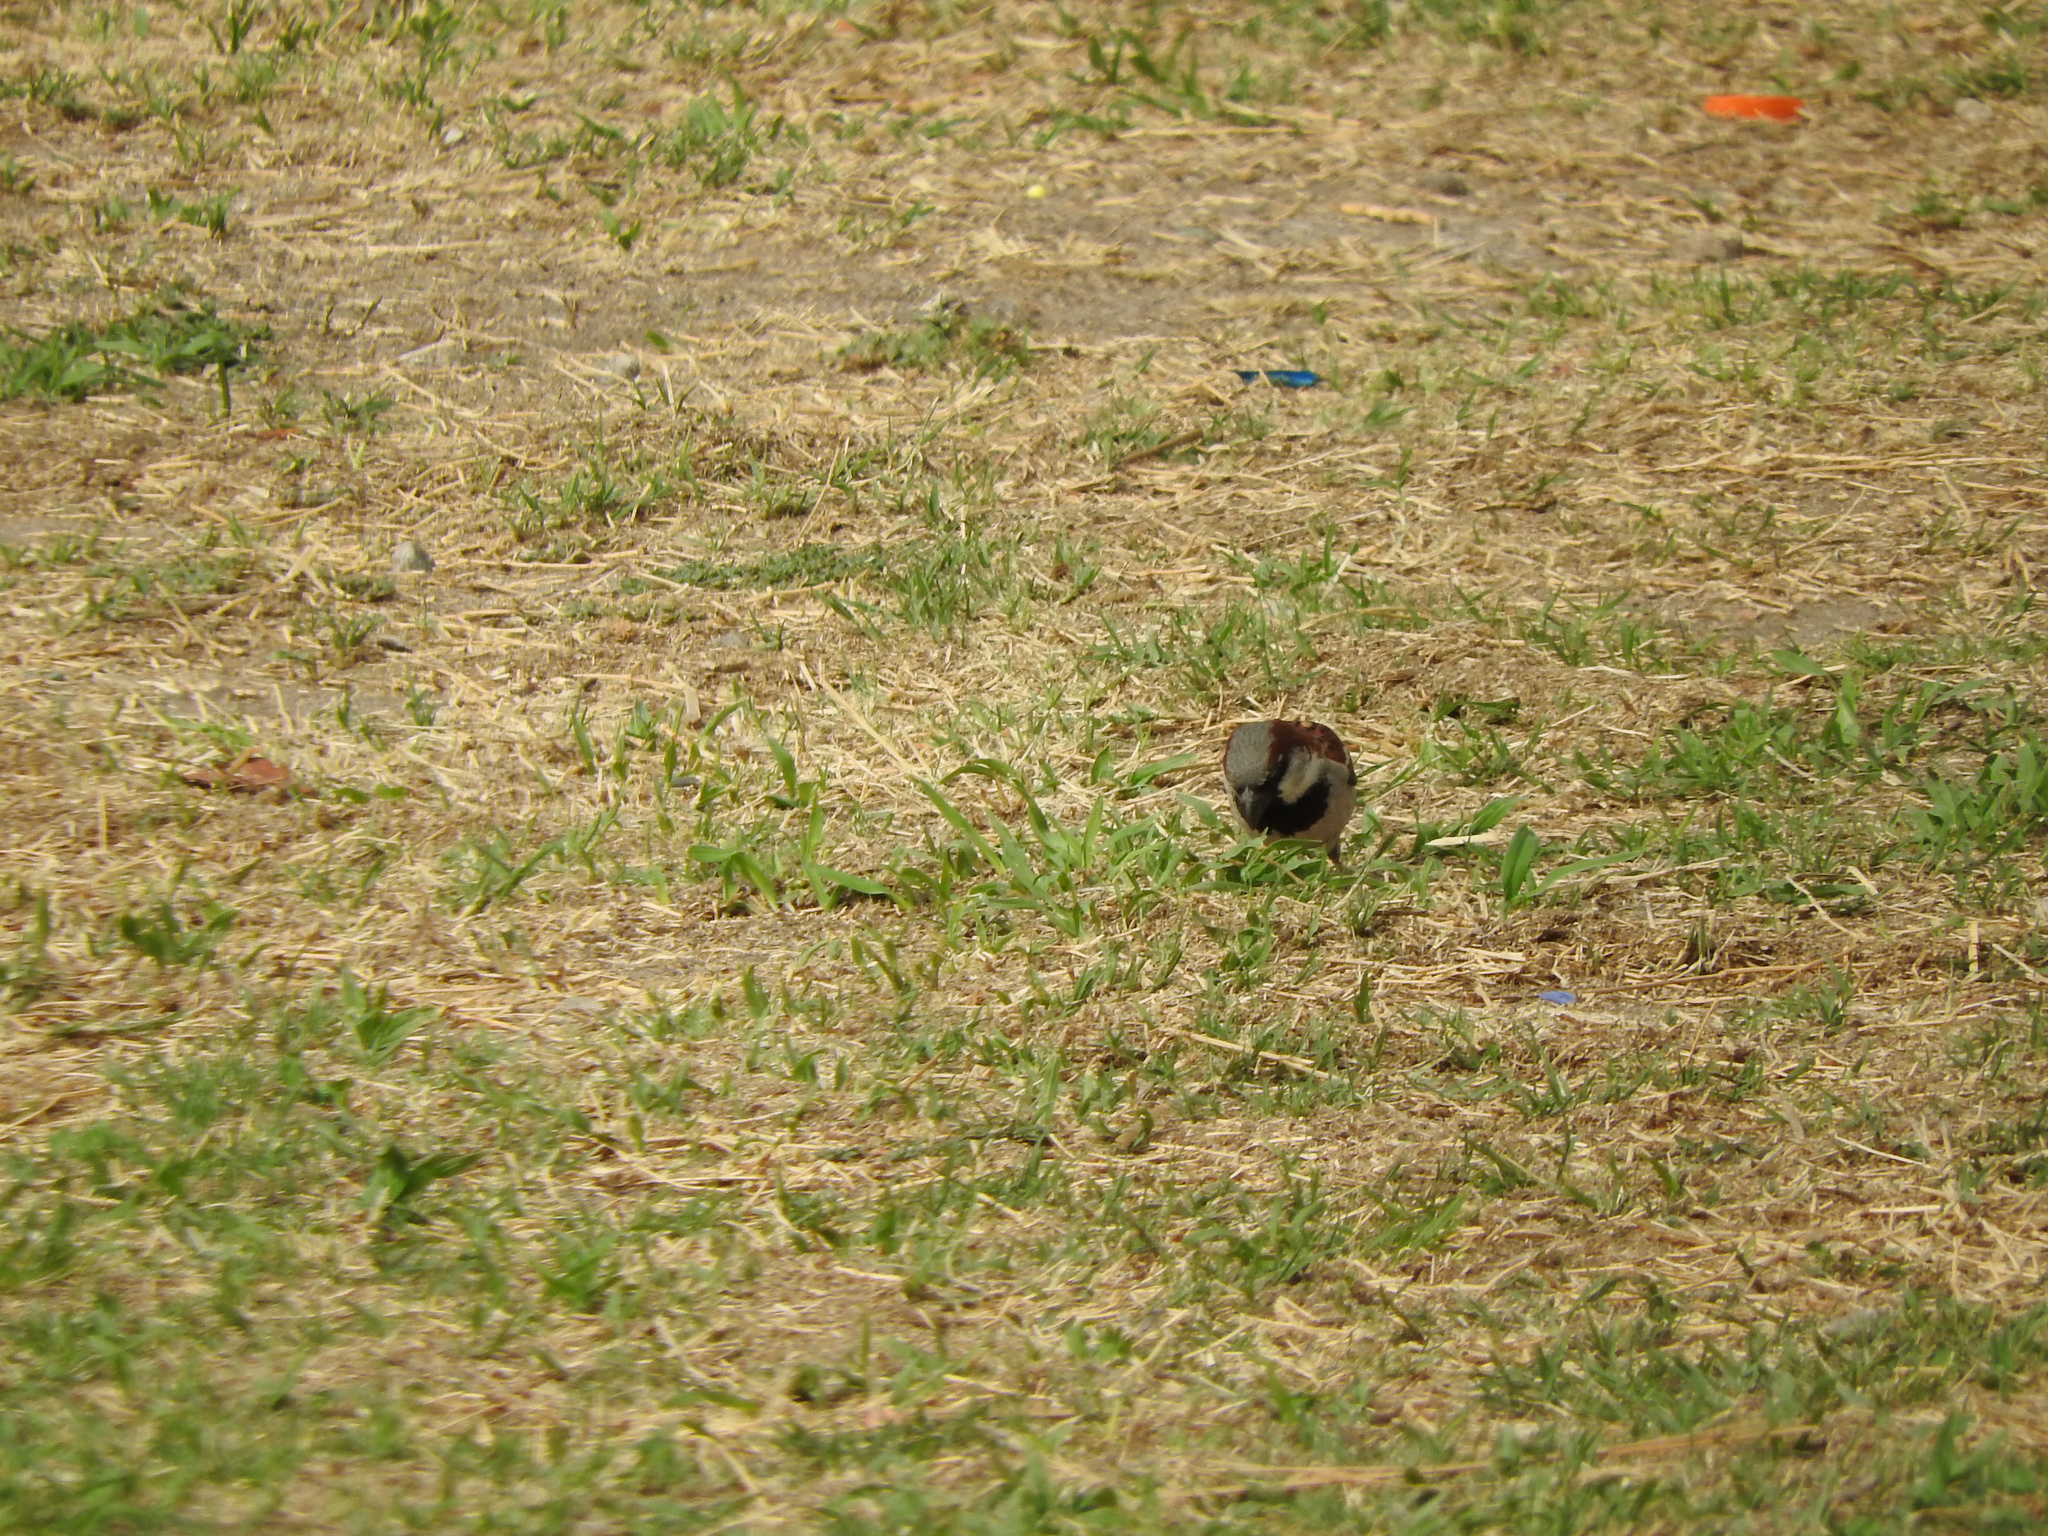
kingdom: Animalia
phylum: Chordata
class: Aves
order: Passeriformes
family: Passeridae
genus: Passer
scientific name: Passer domesticus
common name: House sparrow
